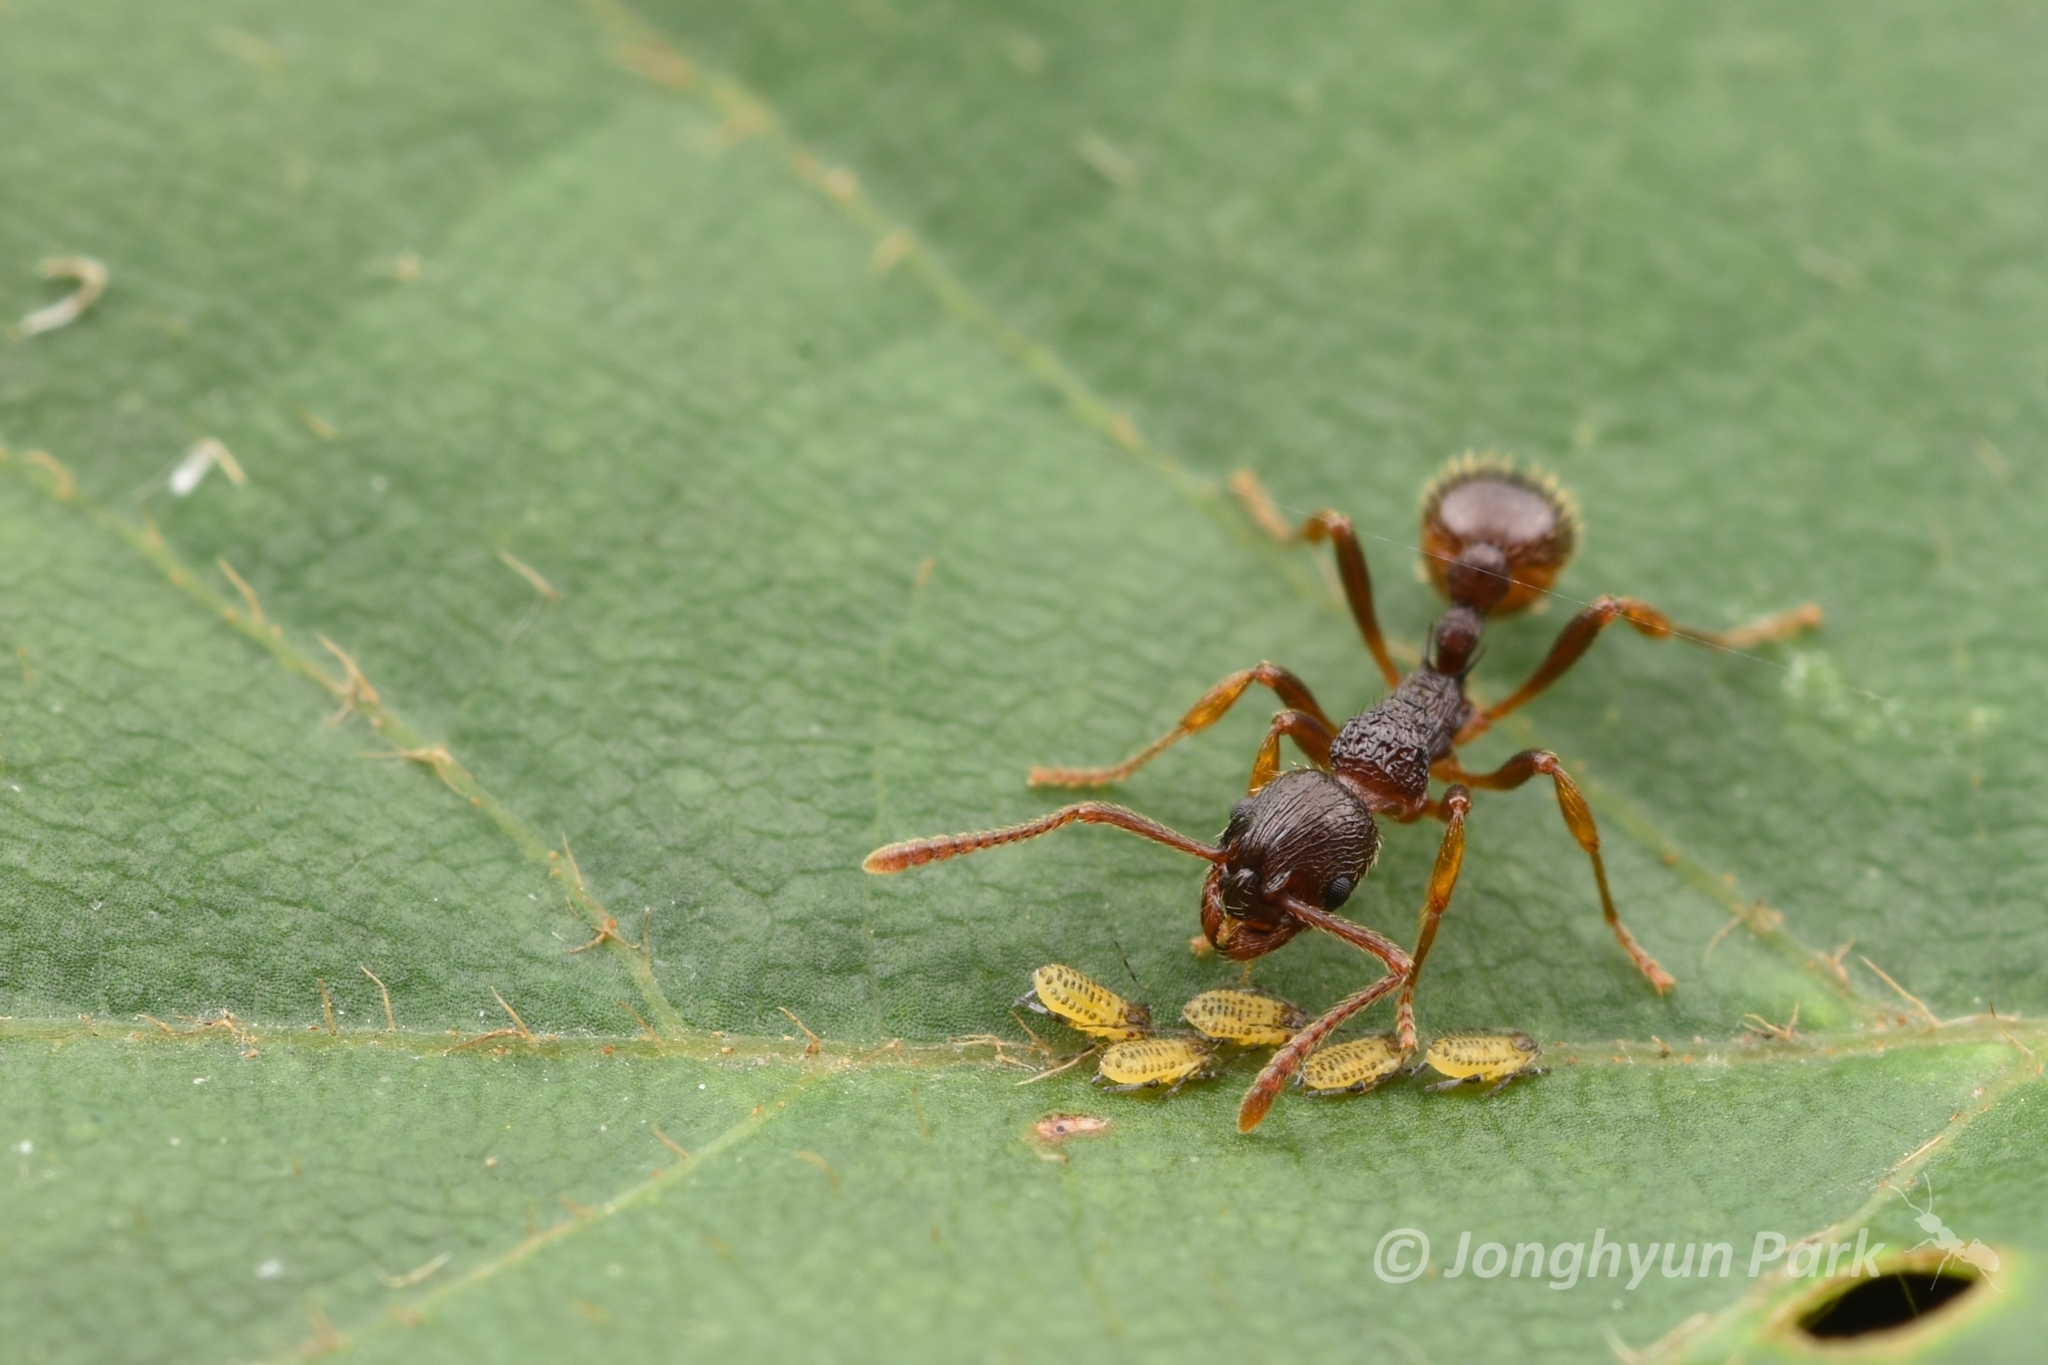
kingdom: Animalia
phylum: Arthropoda
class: Insecta
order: Hymenoptera
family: Formicidae
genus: Myrmica
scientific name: Myrmica kotokui
